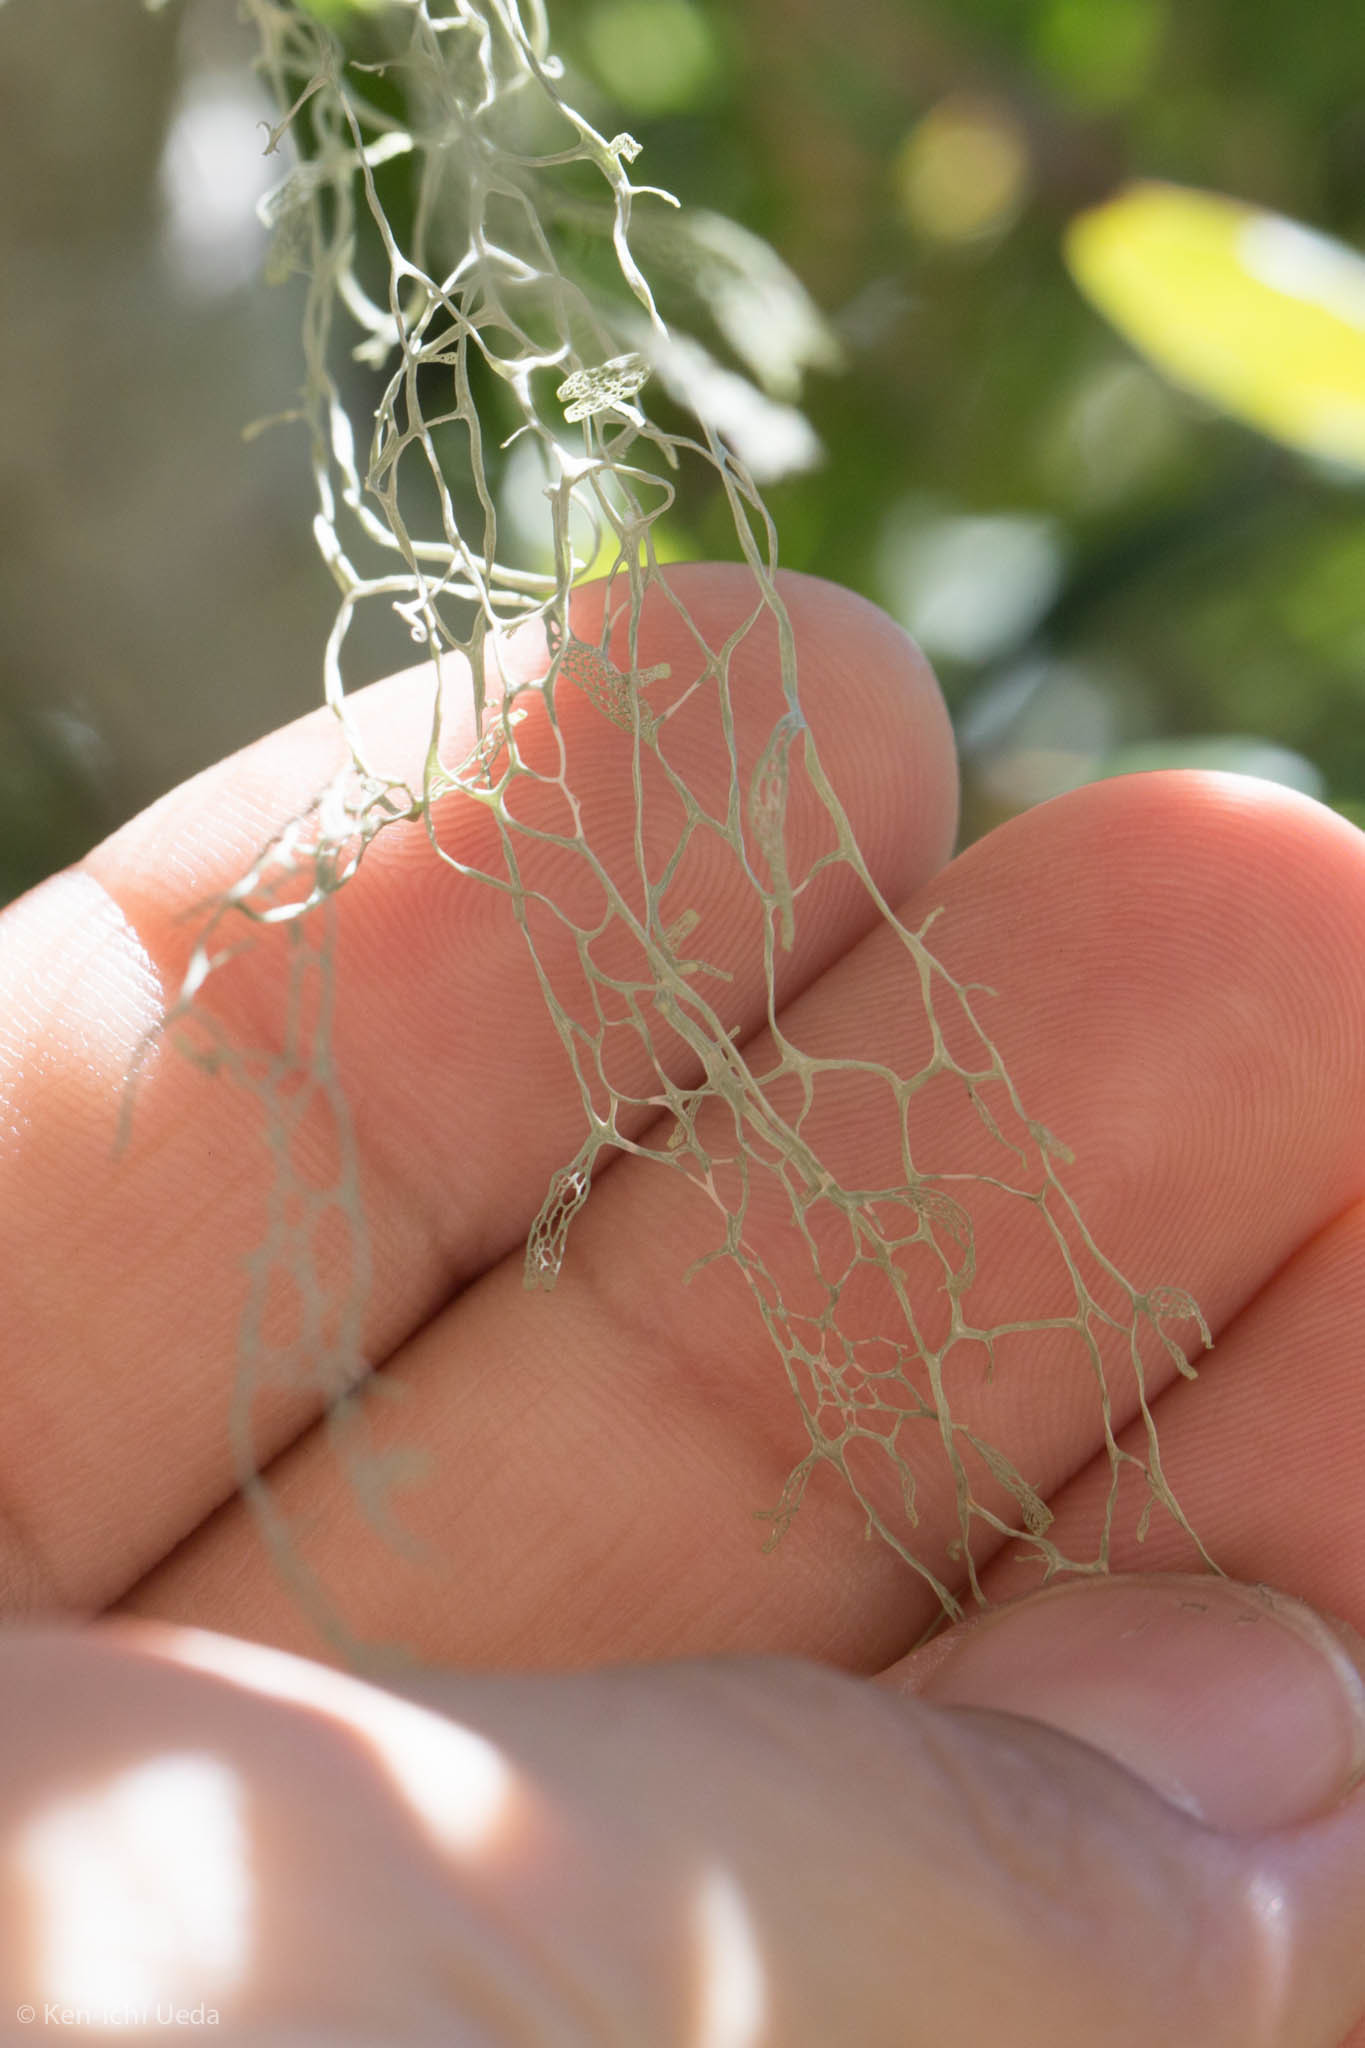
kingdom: Fungi
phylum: Ascomycota
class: Lecanoromycetes
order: Lecanorales
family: Ramalinaceae
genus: Ramalina
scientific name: Ramalina menziesii
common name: Lace lichen
